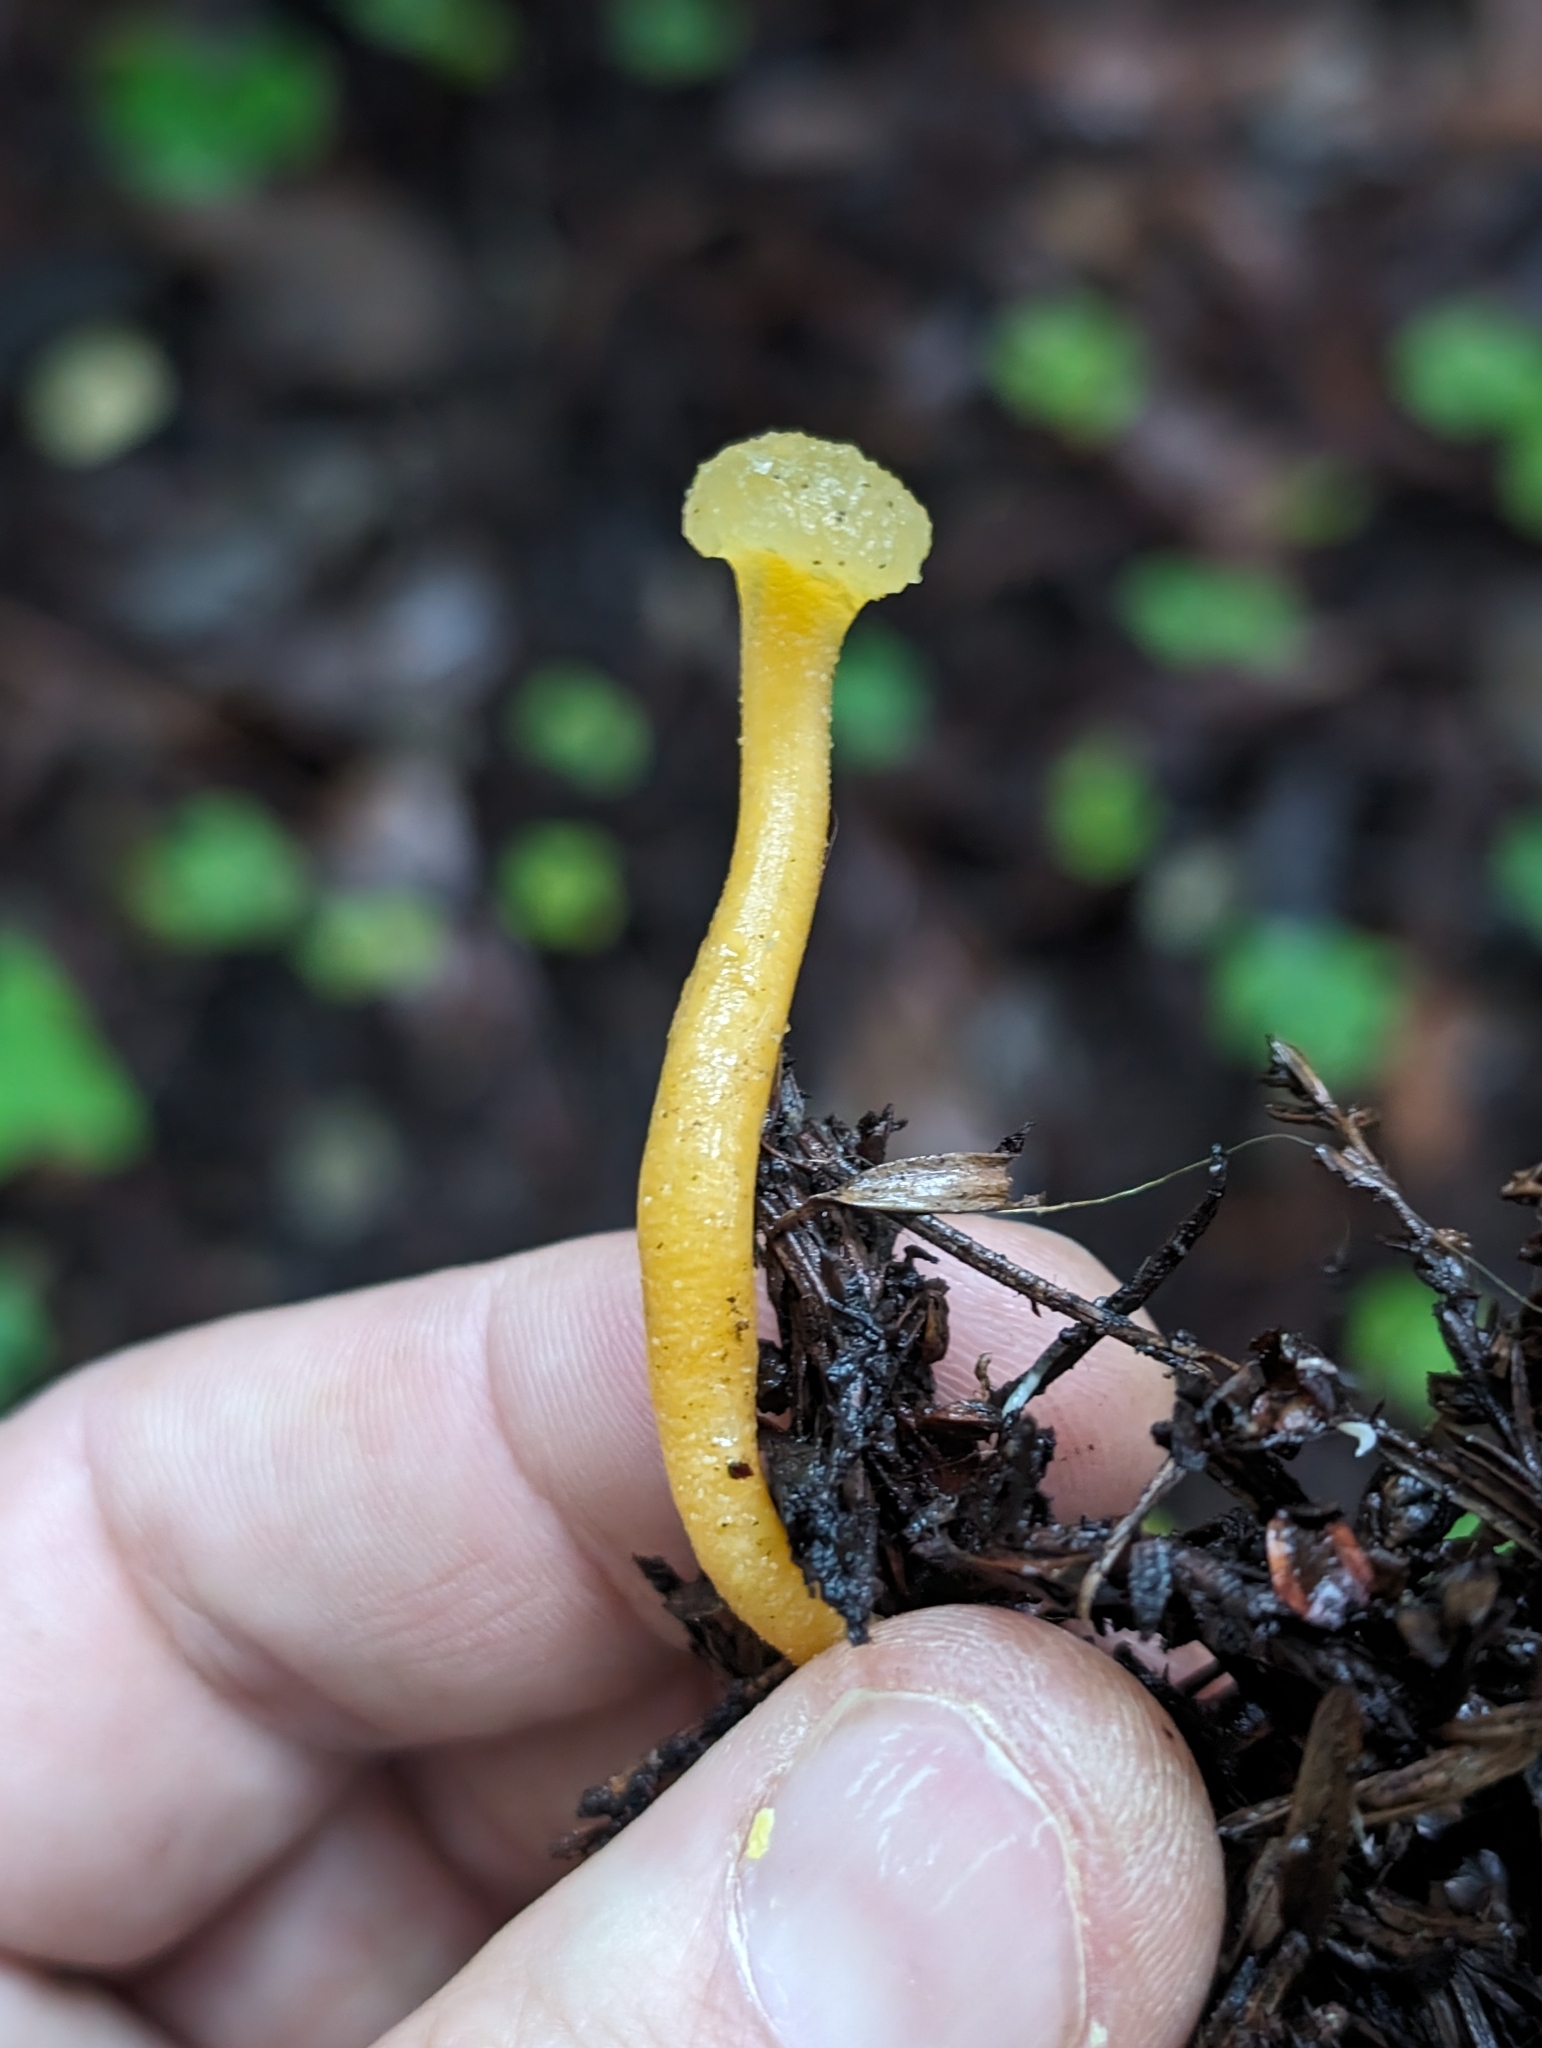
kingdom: Fungi
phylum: Ascomycota
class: Leotiomycetes
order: Leotiales
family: Leotiaceae
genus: Leotia
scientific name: Leotia lubrica
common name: Jellybaby
